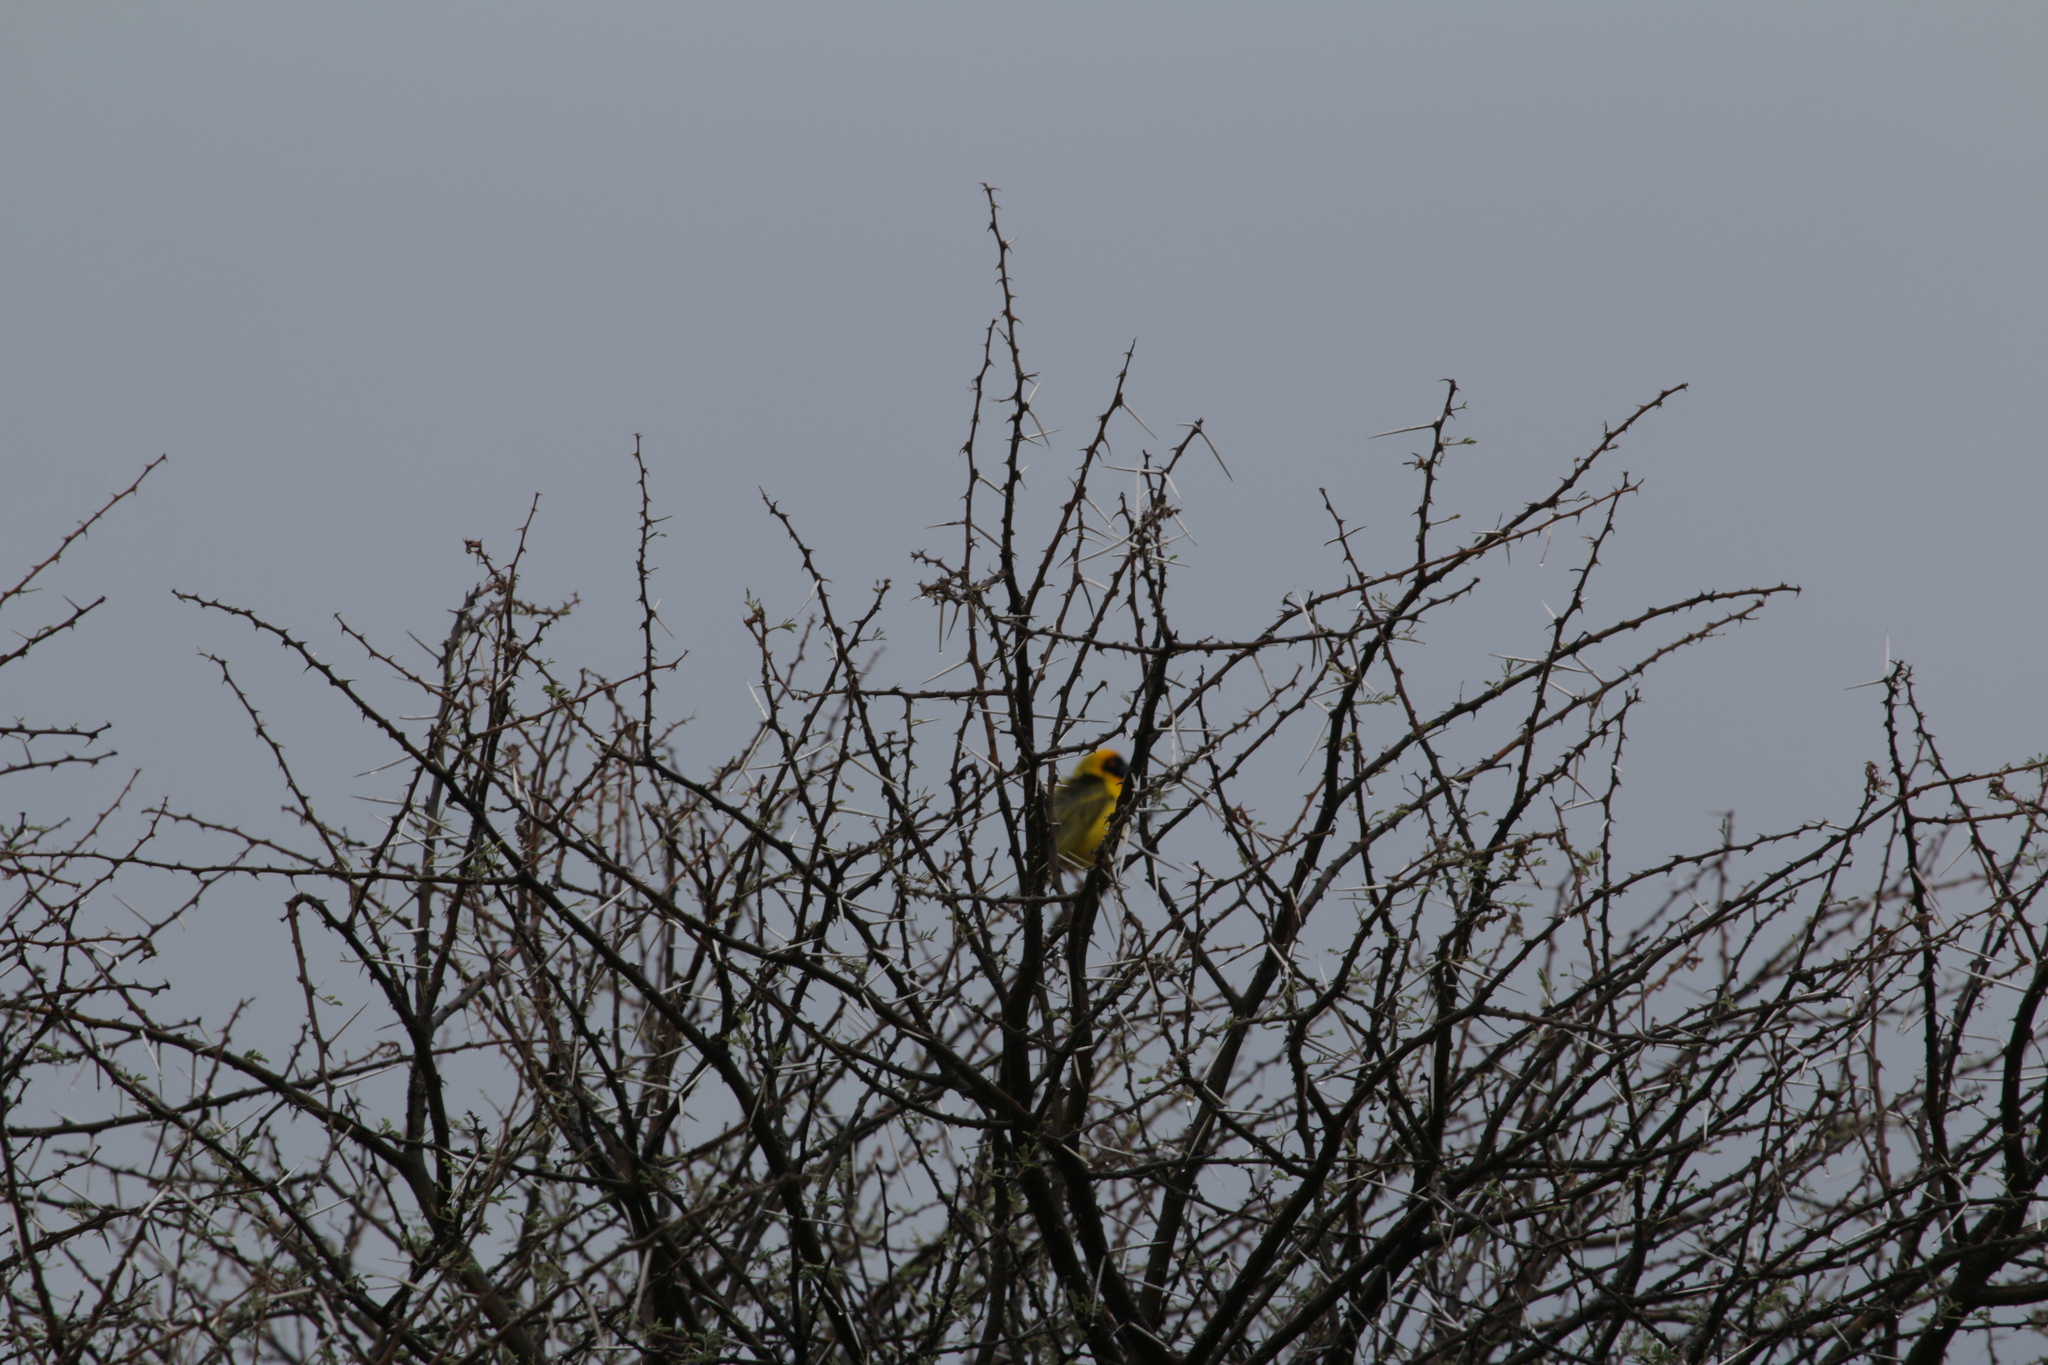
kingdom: Animalia
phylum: Chordata
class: Aves
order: Passeriformes
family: Ploceidae
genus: Ploceus
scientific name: Ploceus velatus
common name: Southern masked weaver
